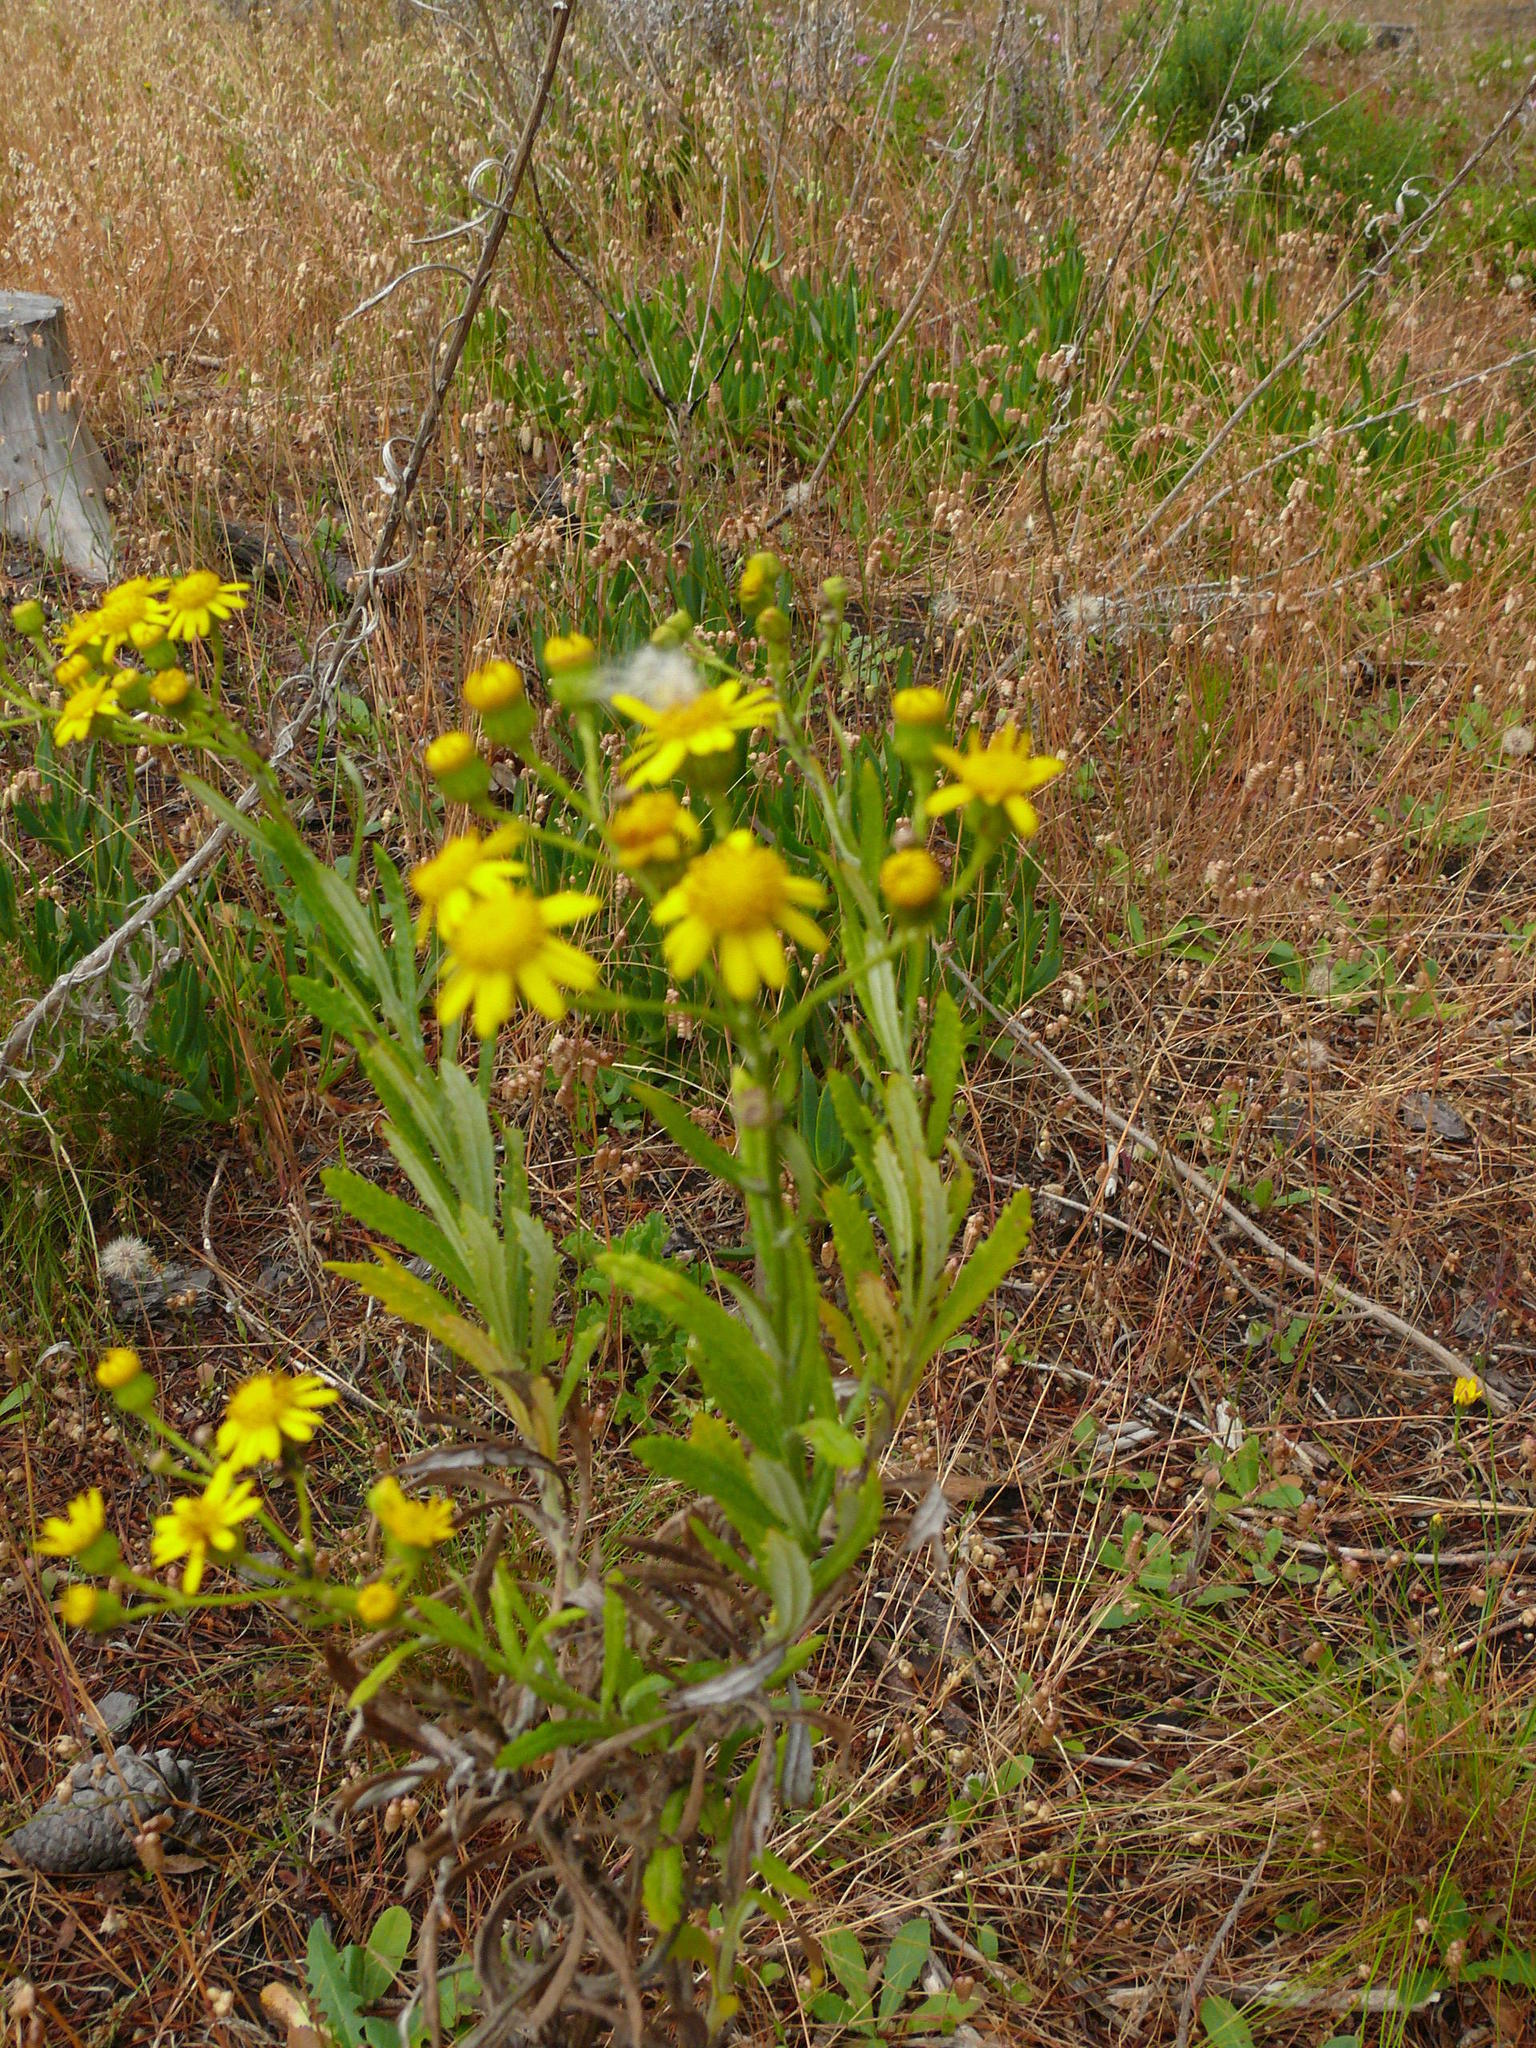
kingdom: Plantae
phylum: Tracheophyta
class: Magnoliopsida
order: Asterales
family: Asteraceae
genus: Senecio
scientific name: Senecio pterophorus
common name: Shoddy ragwort
